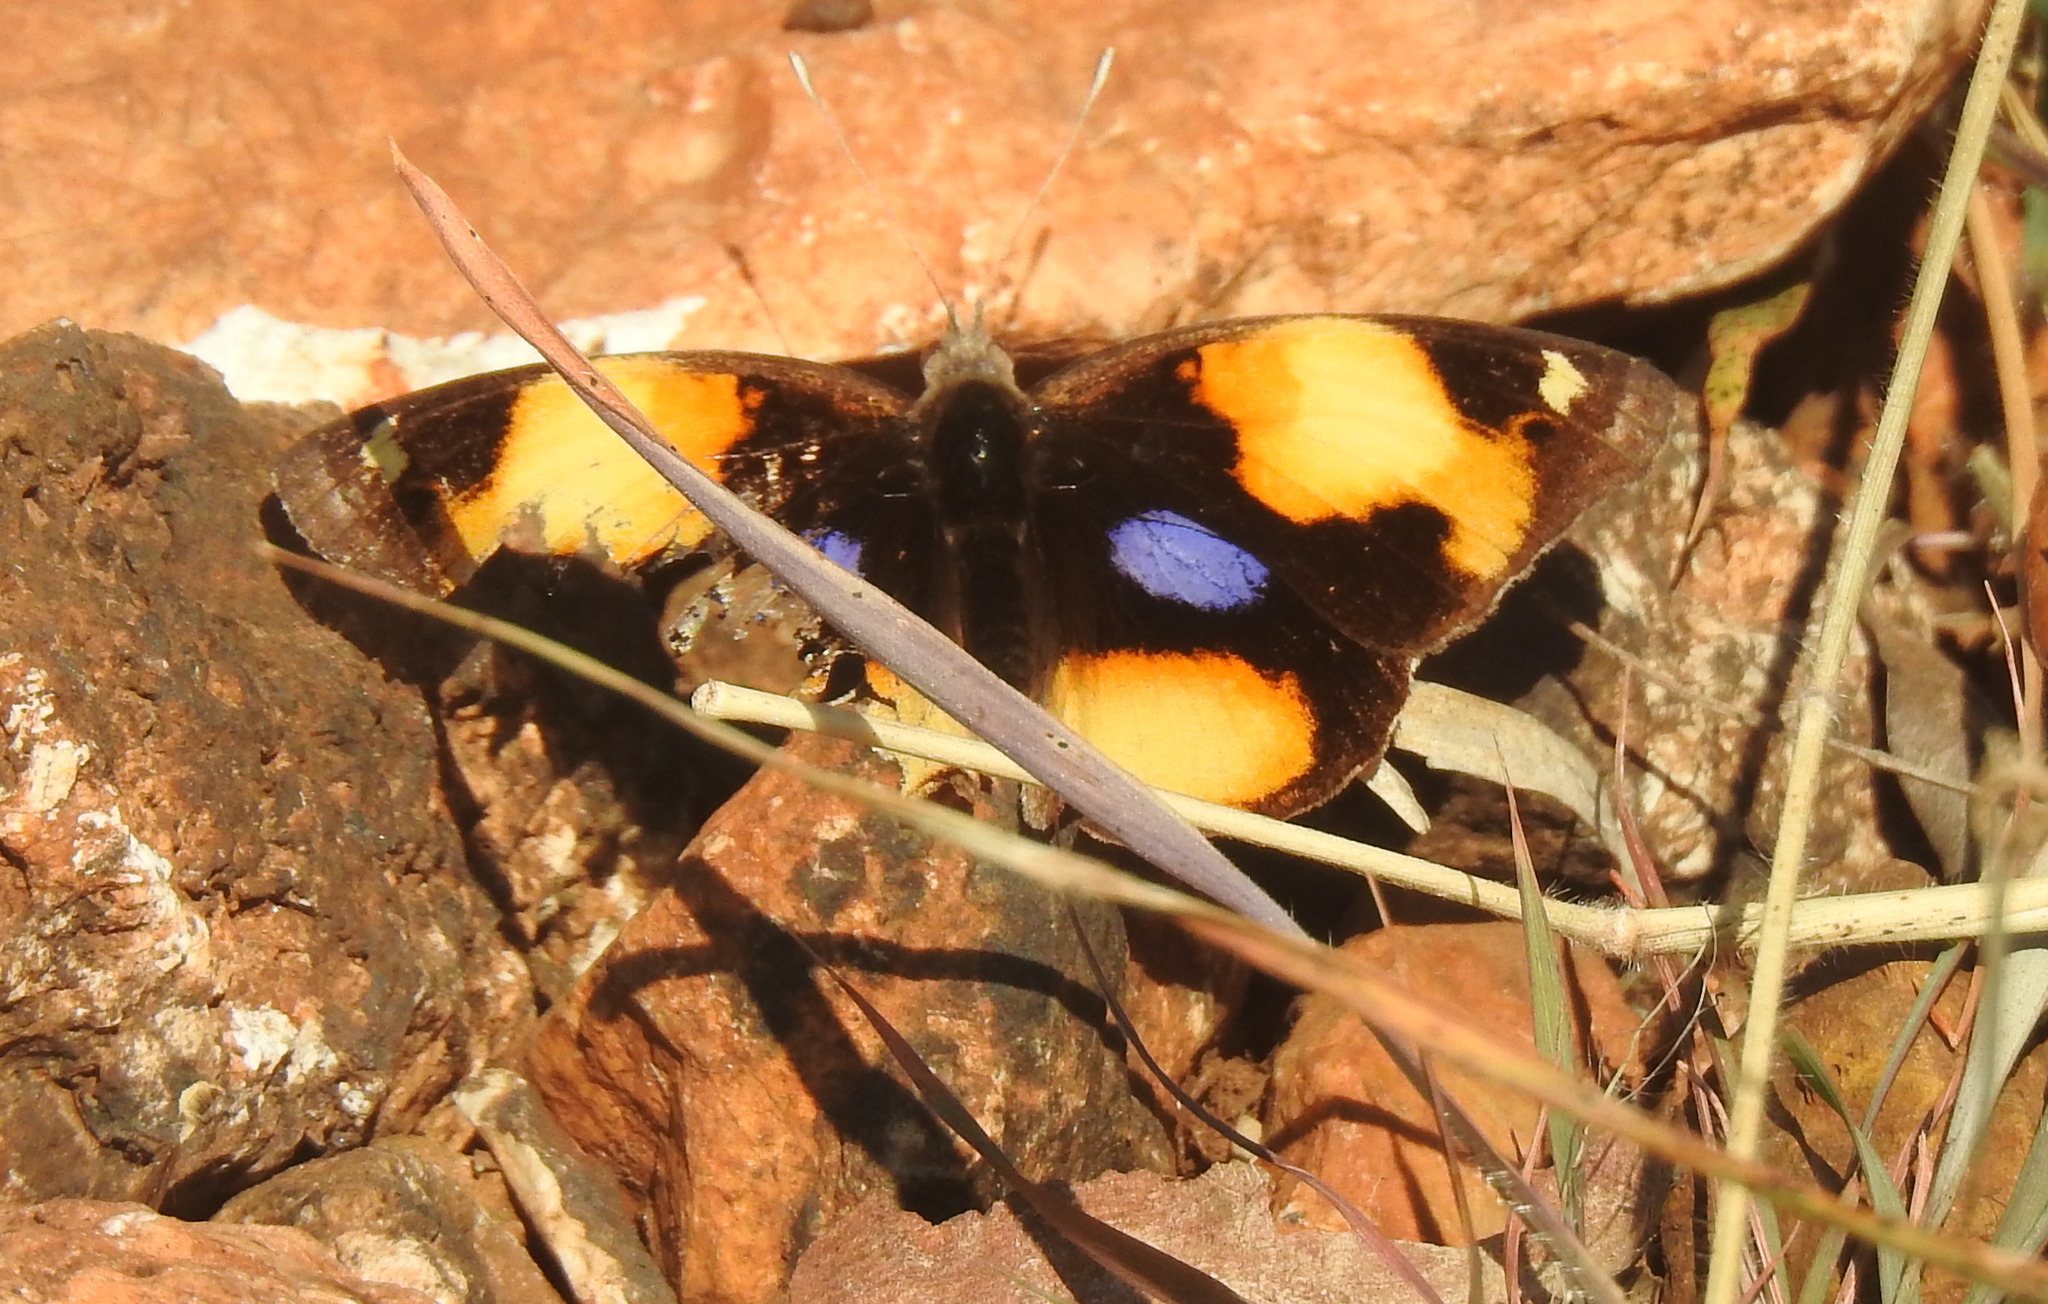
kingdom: Animalia
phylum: Arthropoda
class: Insecta
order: Lepidoptera
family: Nymphalidae
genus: Junonia
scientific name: Junonia hierta
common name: Yellow pansy
